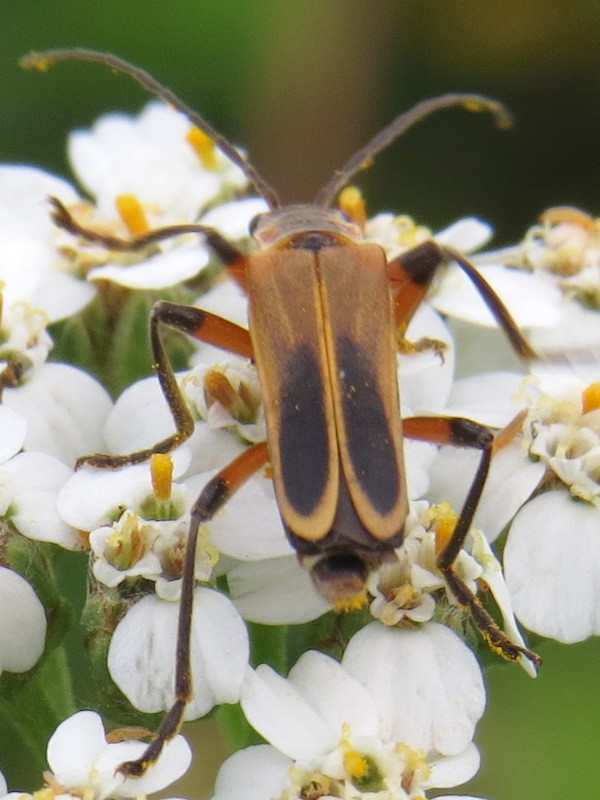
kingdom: Animalia
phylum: Arthropoda
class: Insecta
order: Coleoptera
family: Cantharidae
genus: Chauliognathus
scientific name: Chauliognathus marginatus
